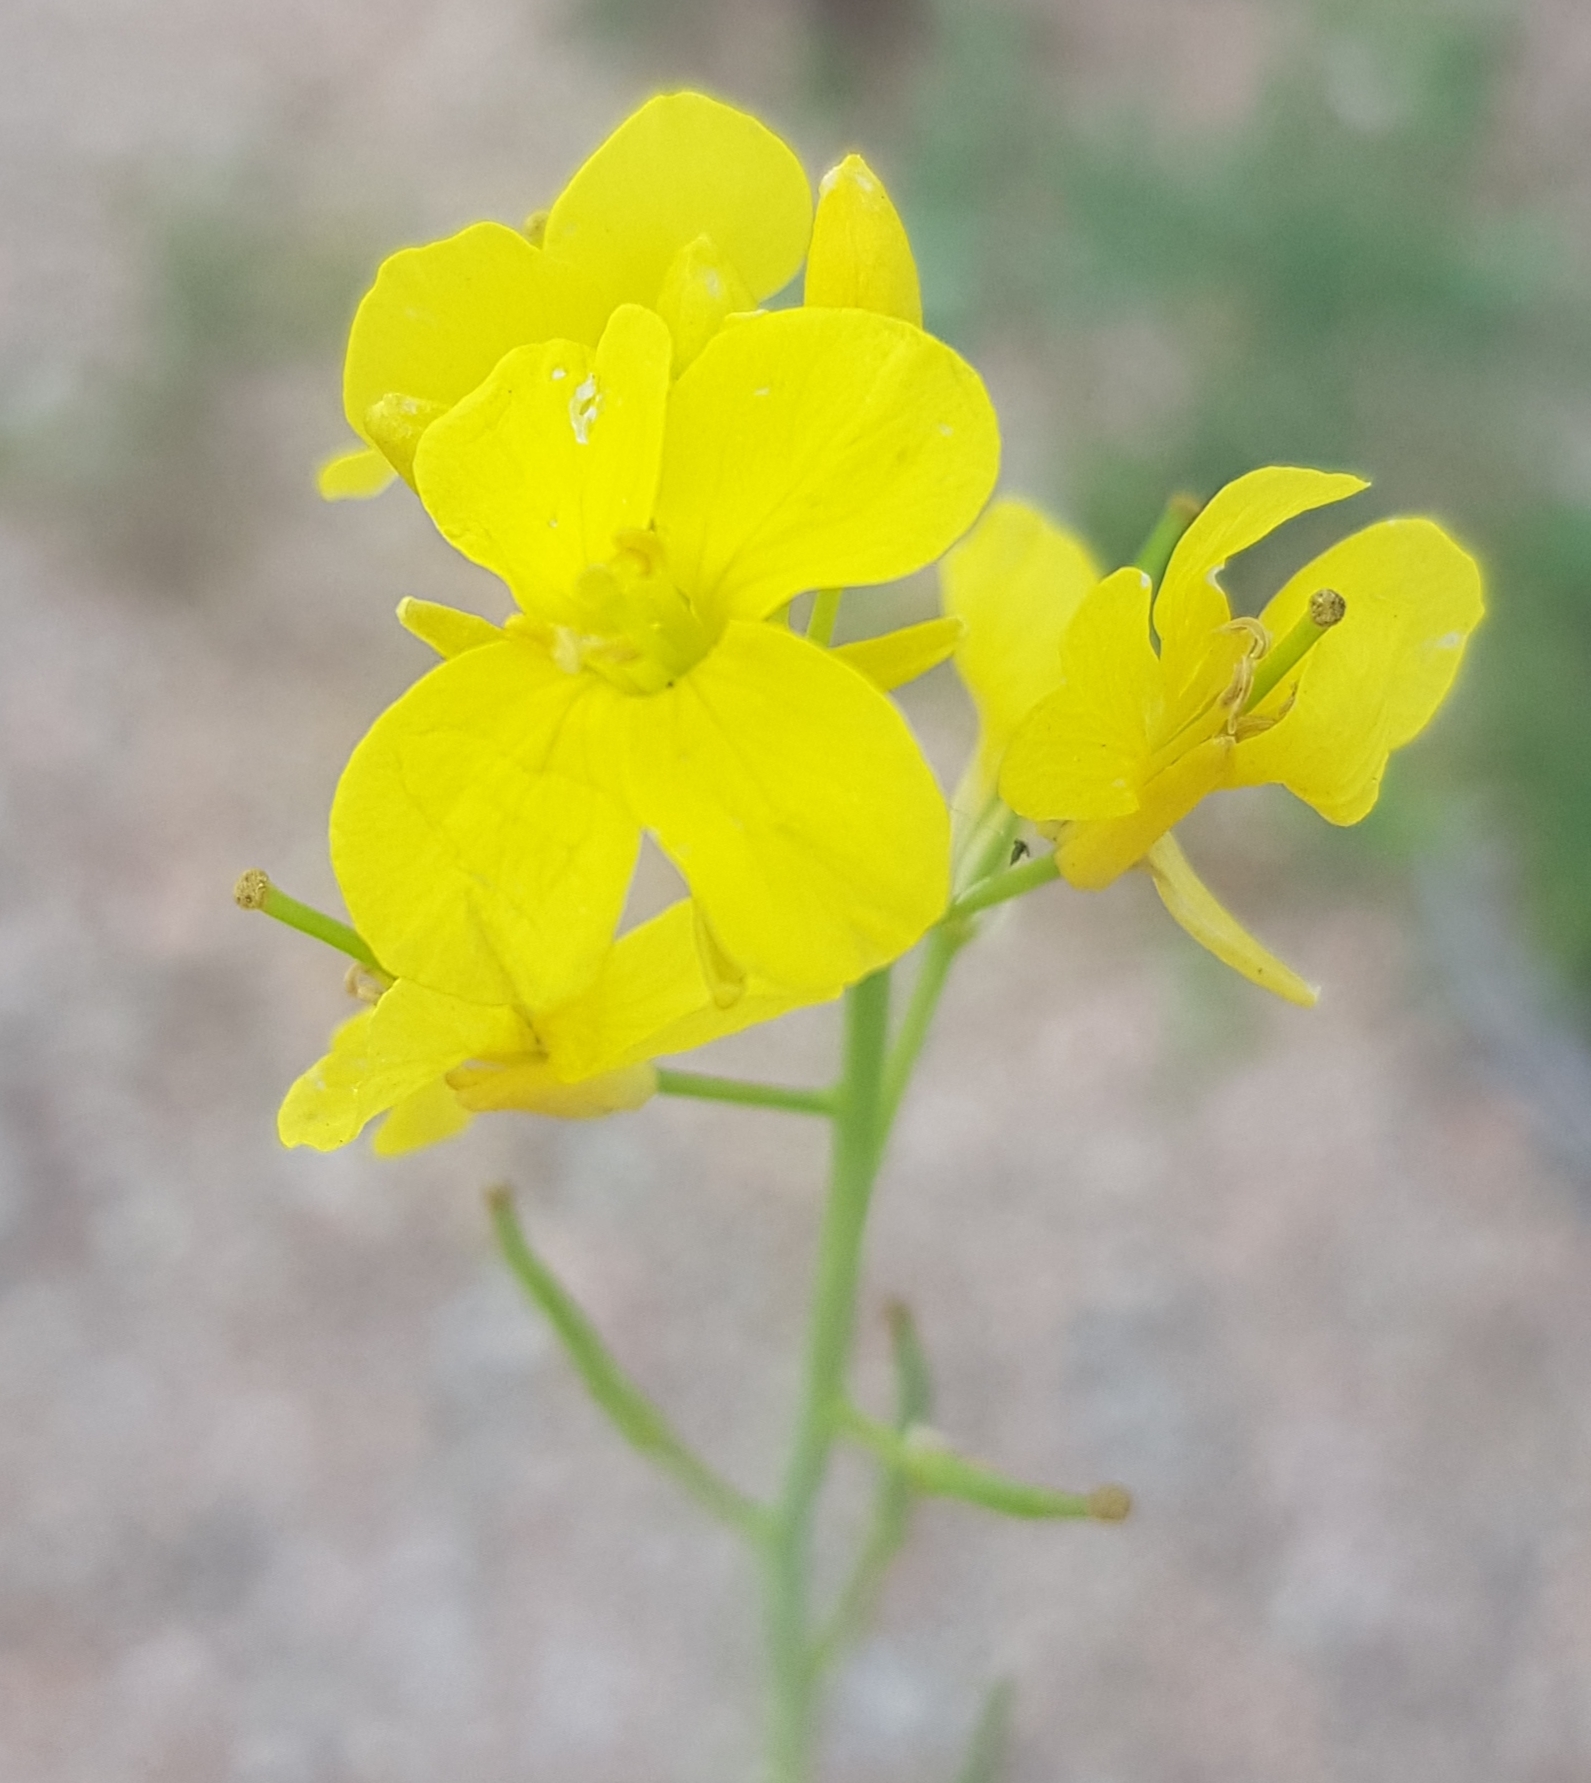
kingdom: Plantae
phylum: Tracheophyta
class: Magnoliopsida
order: Brassicales
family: Brassicaceae
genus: Brassica
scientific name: Brassica rapa
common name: Field mustard
